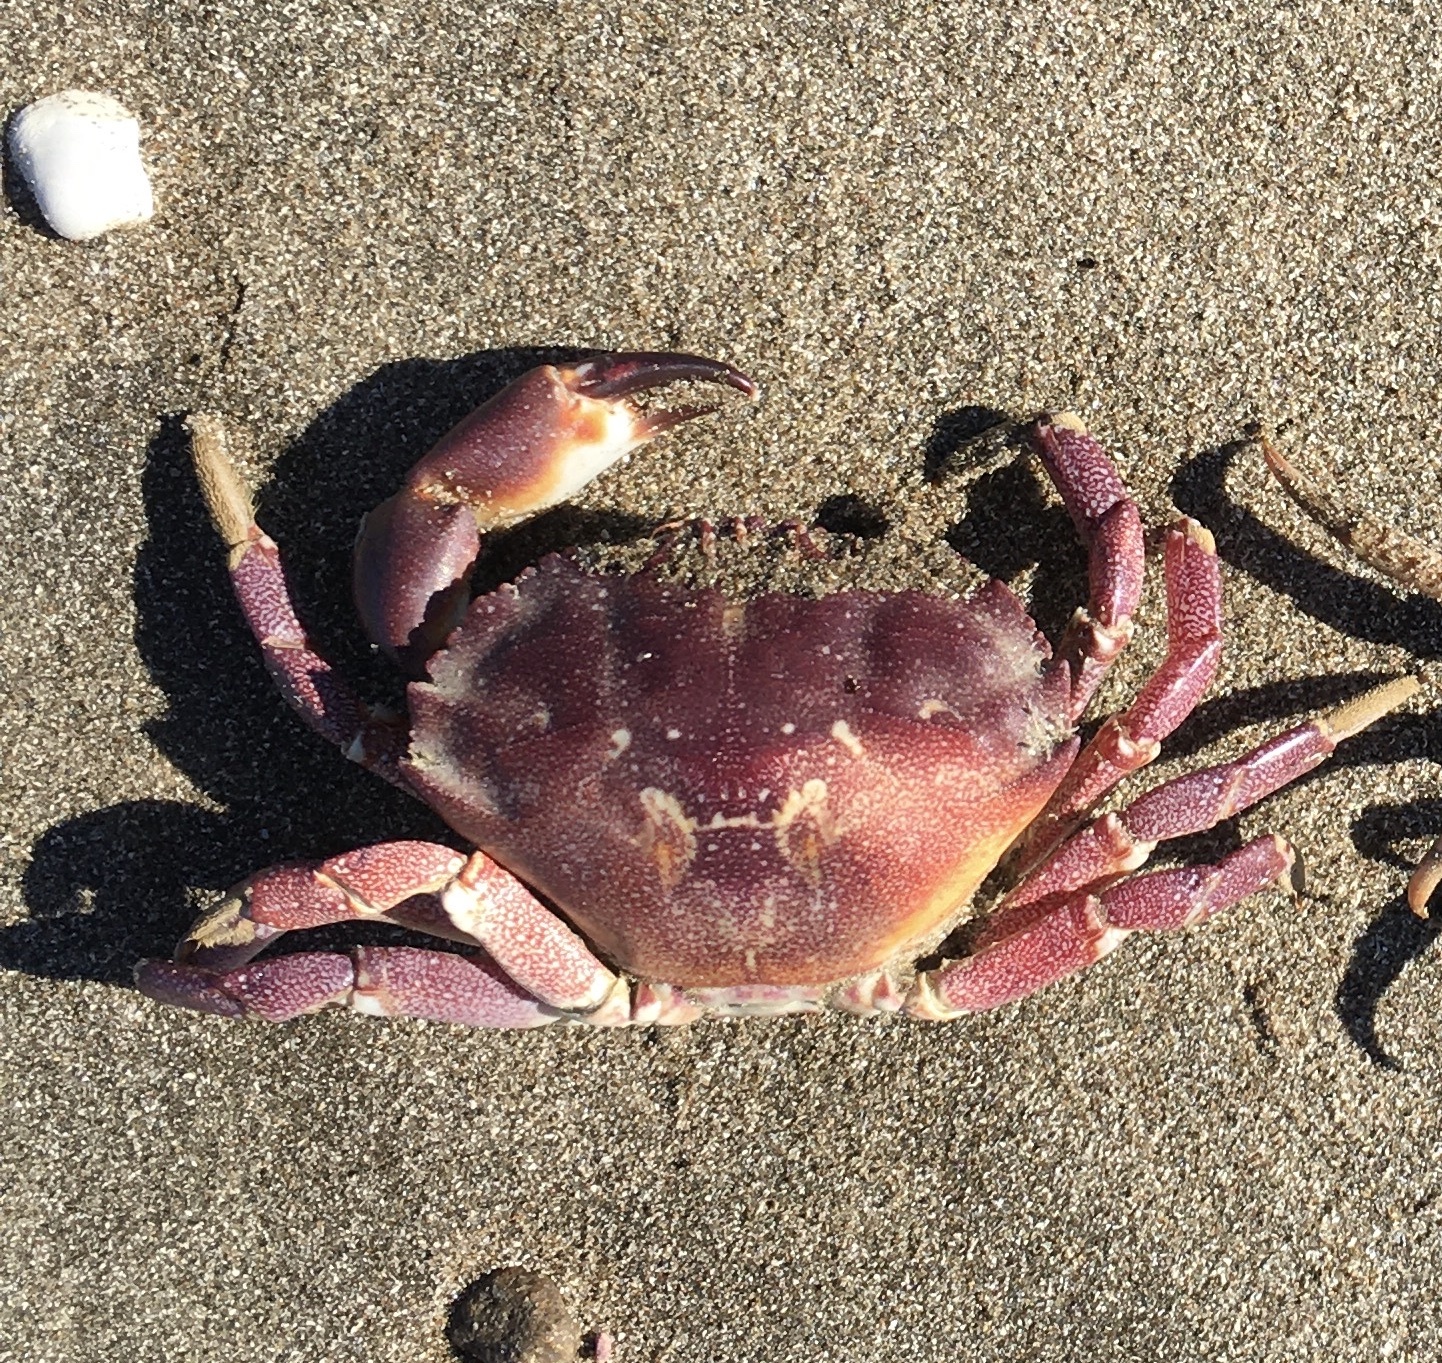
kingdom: Animalia
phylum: Arthropoda
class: Malacostraca
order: Decapoda
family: Platyxanthidae
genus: Danielethus
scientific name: Danielethus crenulatus
